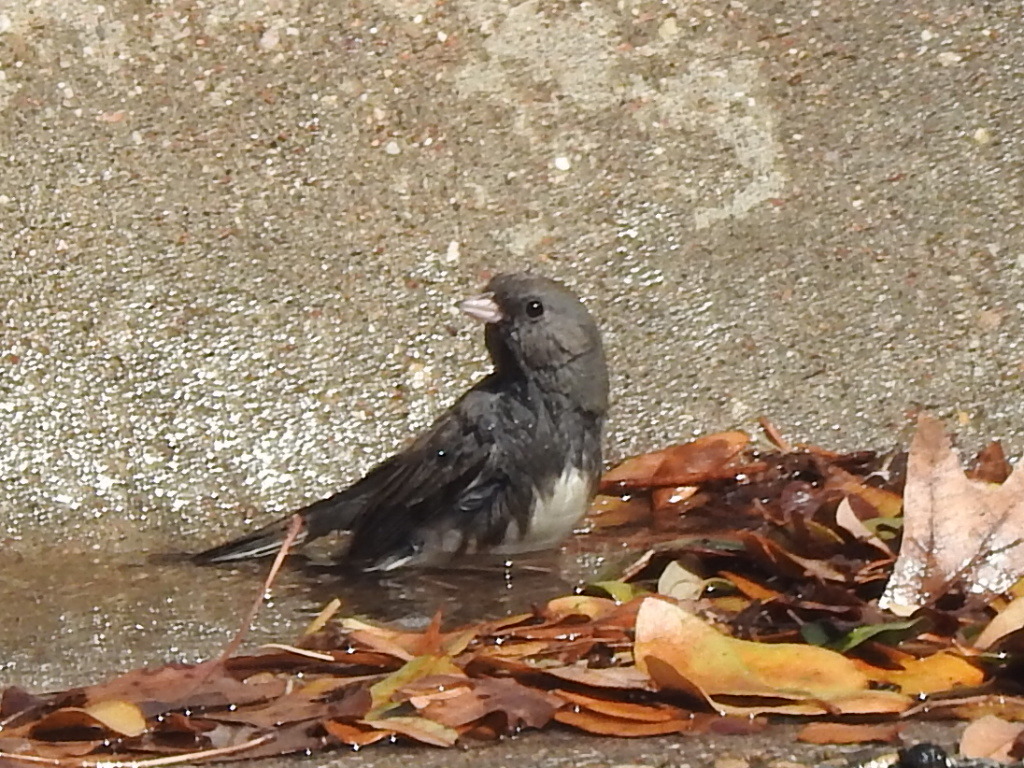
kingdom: Animalia
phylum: Chordata
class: Aves
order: Passeriformes
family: Passerellidae
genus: Junco
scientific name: Junco hyemalis
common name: Dark-eyed junco
